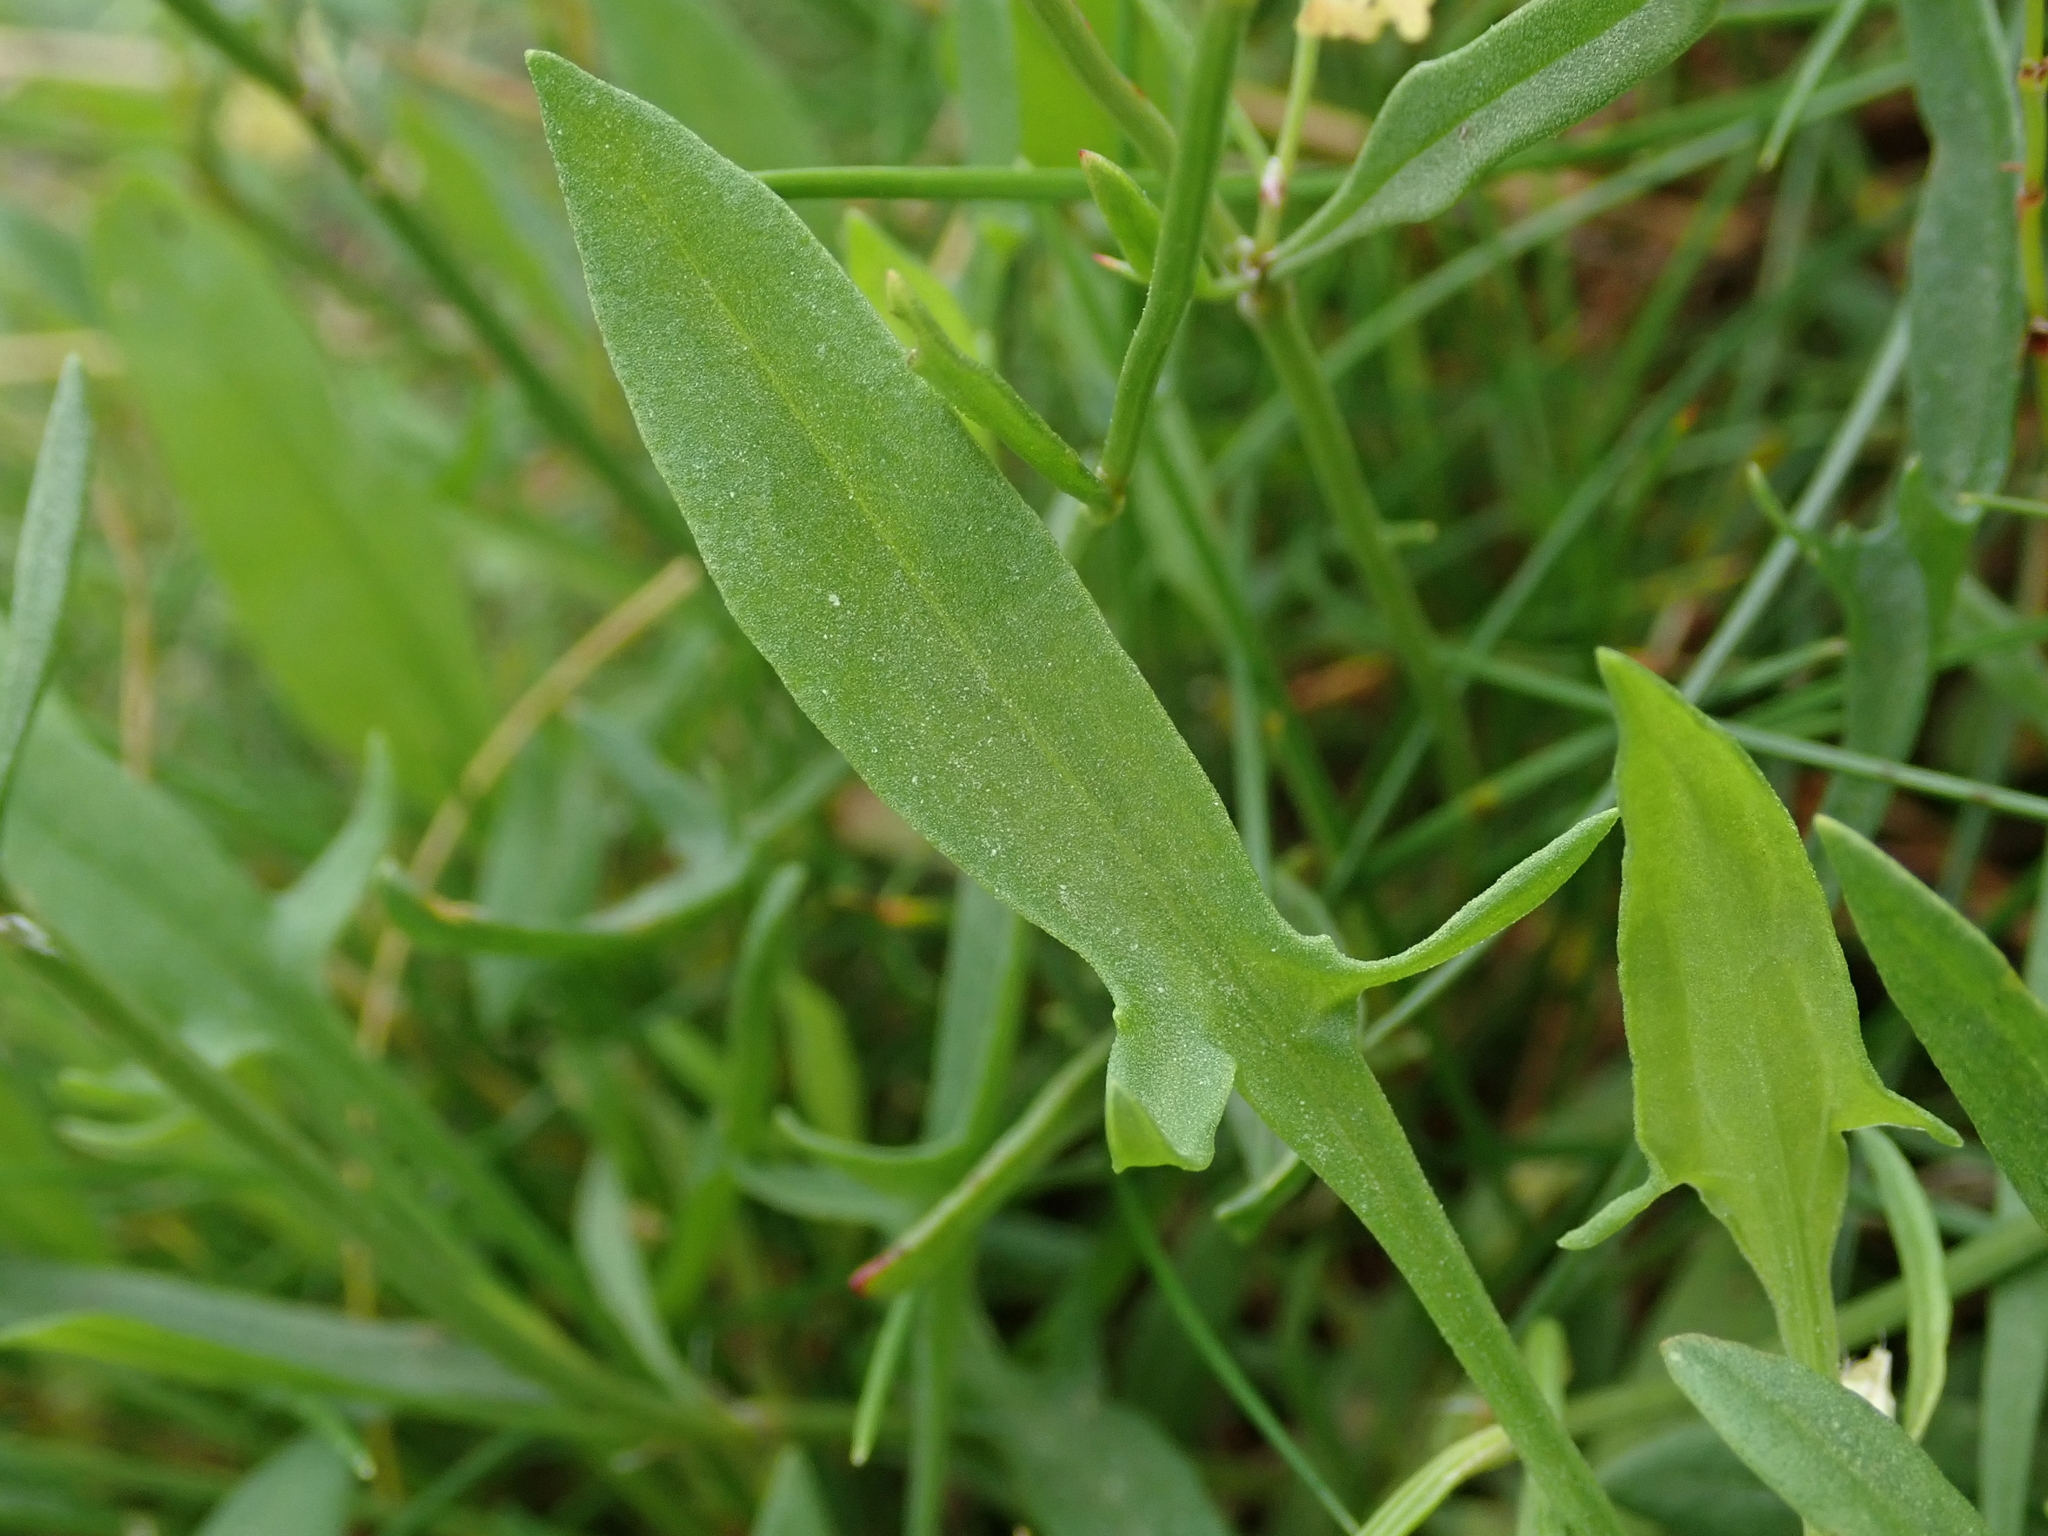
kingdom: Plantae
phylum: Tracheophyta
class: Magnoliopsida
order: Caryophyllales
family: Polygonaceae
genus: Rumex
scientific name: Rumex acetosella
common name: Common sheep sorrel
